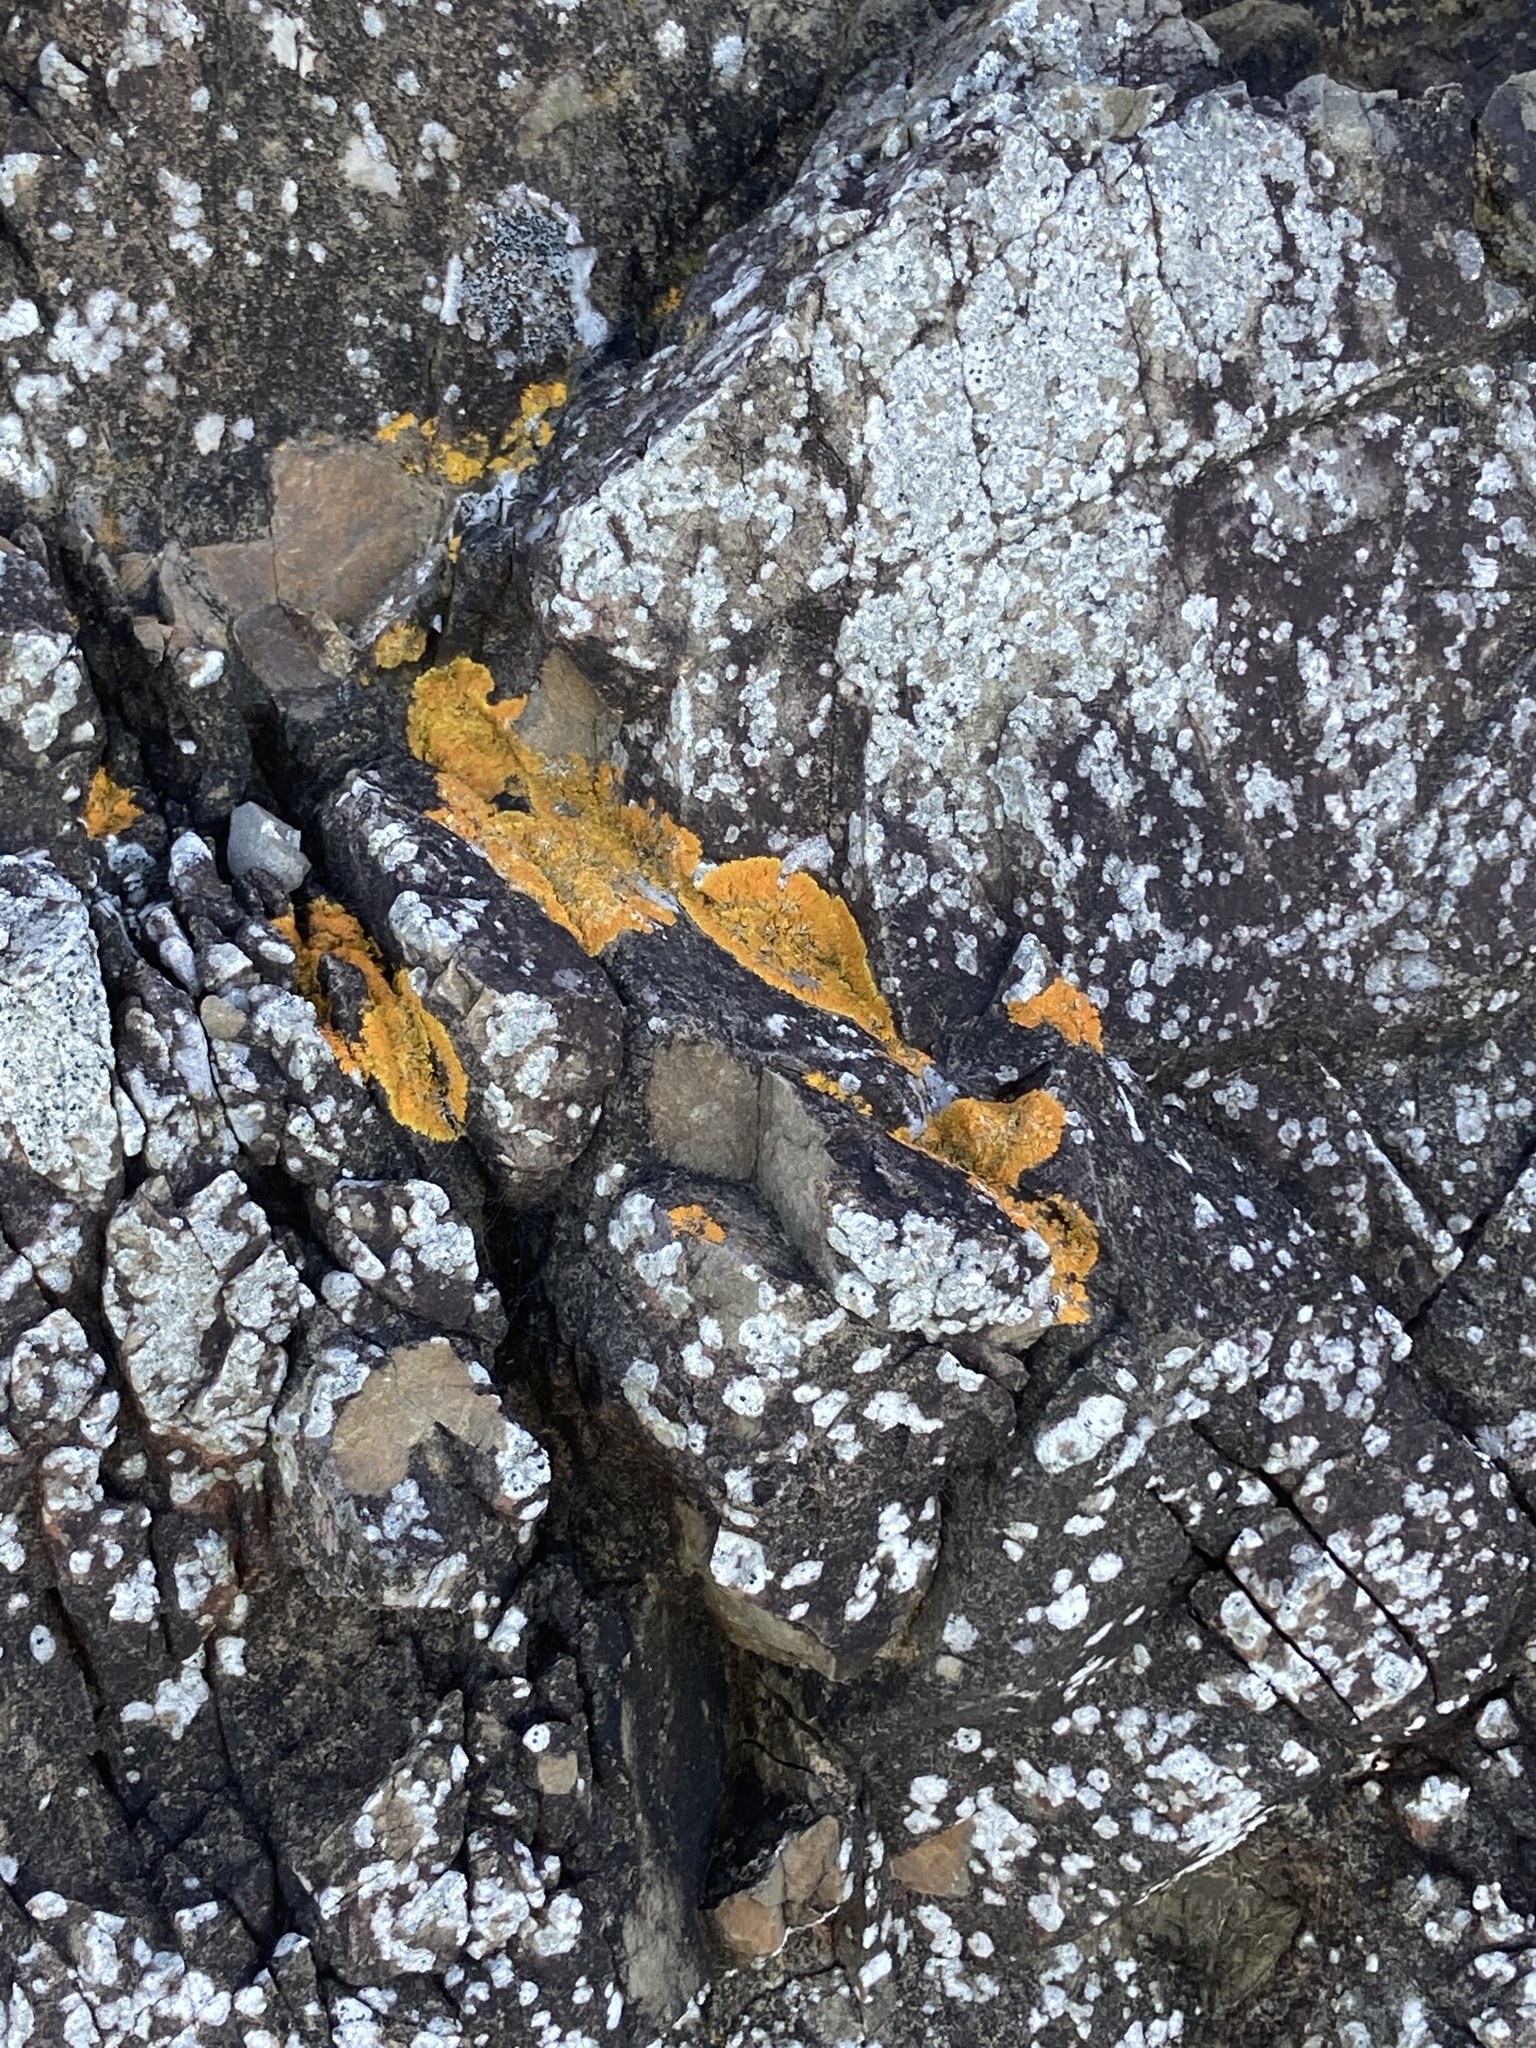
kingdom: Fungi
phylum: Ascomycota
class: Lecanoromycetes
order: Teloschistales
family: Teloschistaceae
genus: Dufourea
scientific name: Dufourea ligulata
